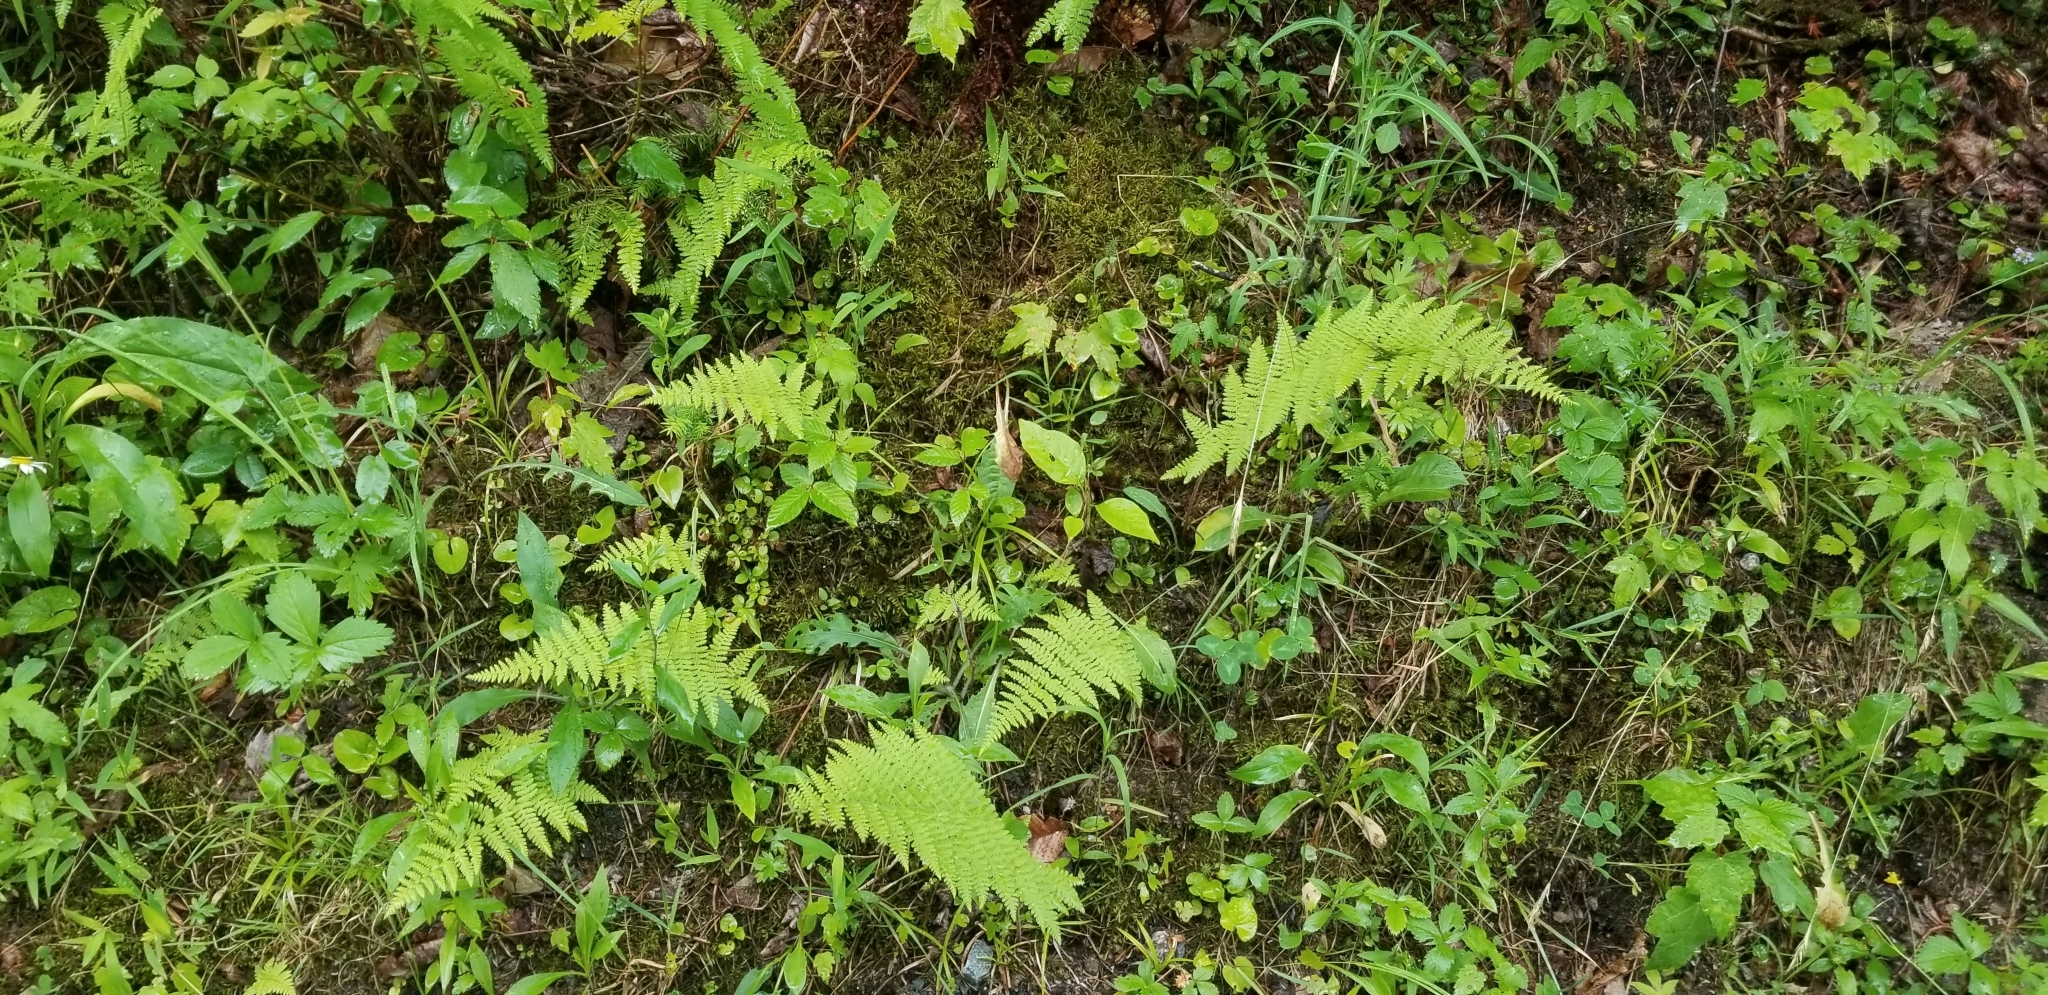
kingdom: Plantae
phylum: Tracheophyta
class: Polypodiopsida
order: Polypodiales
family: Dennstaedtiaceae
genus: Sitobolium
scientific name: Sitobolium punctilobum
